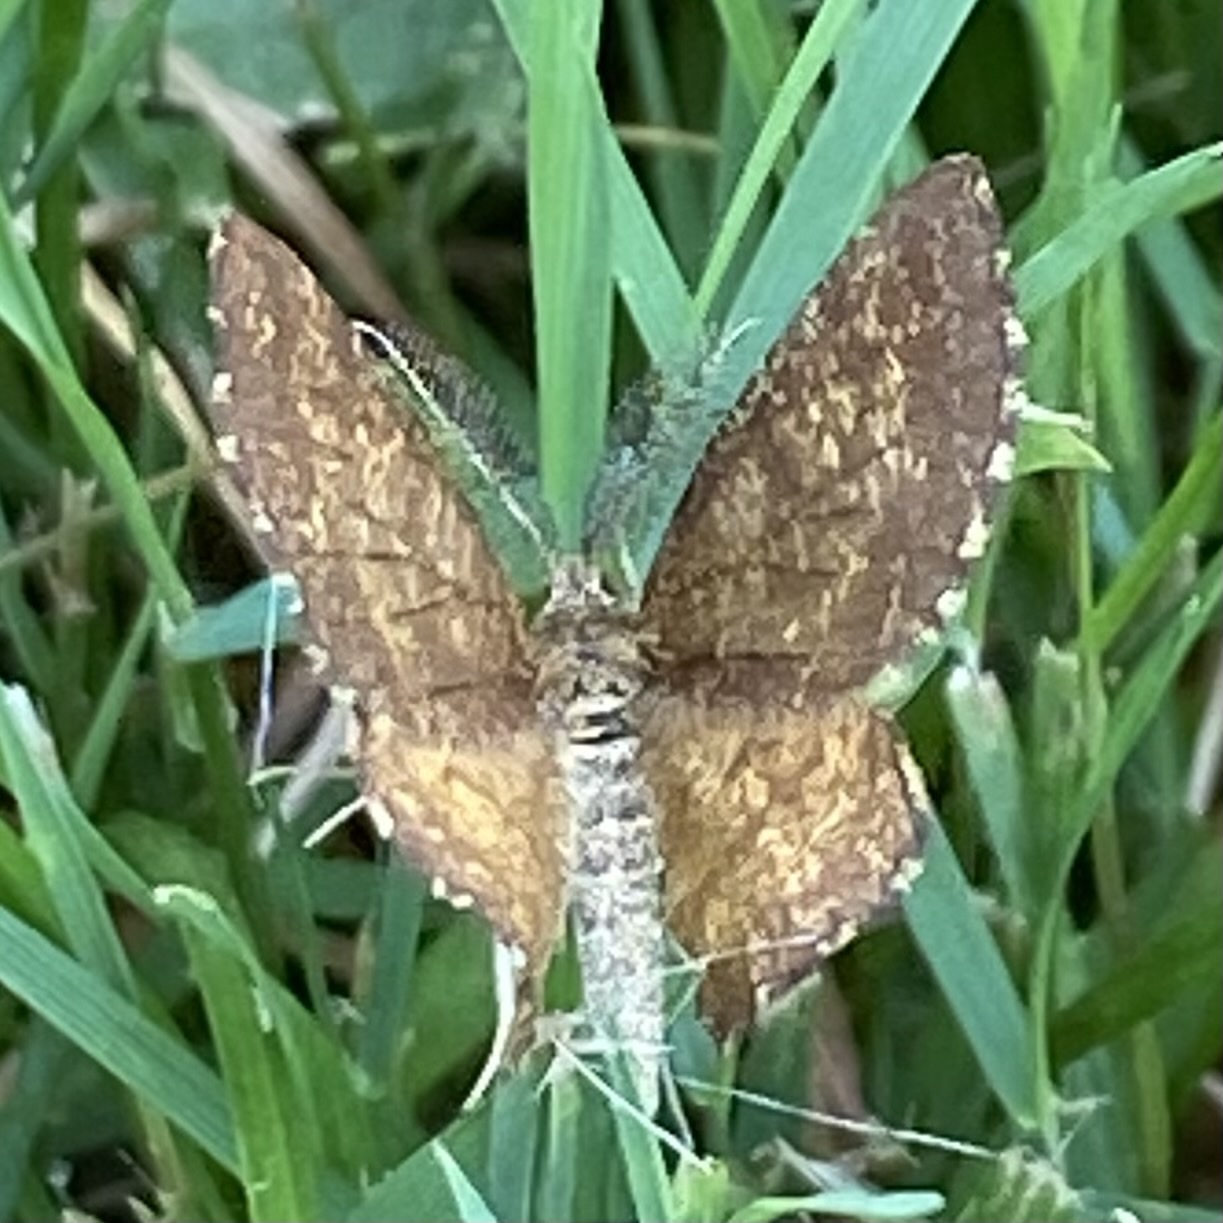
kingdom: Animalia
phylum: Arthropoda
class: Insecta
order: Lepidoptera
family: Geometridae
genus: Ematurga
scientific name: Ematurga atomaria
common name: Common heath
